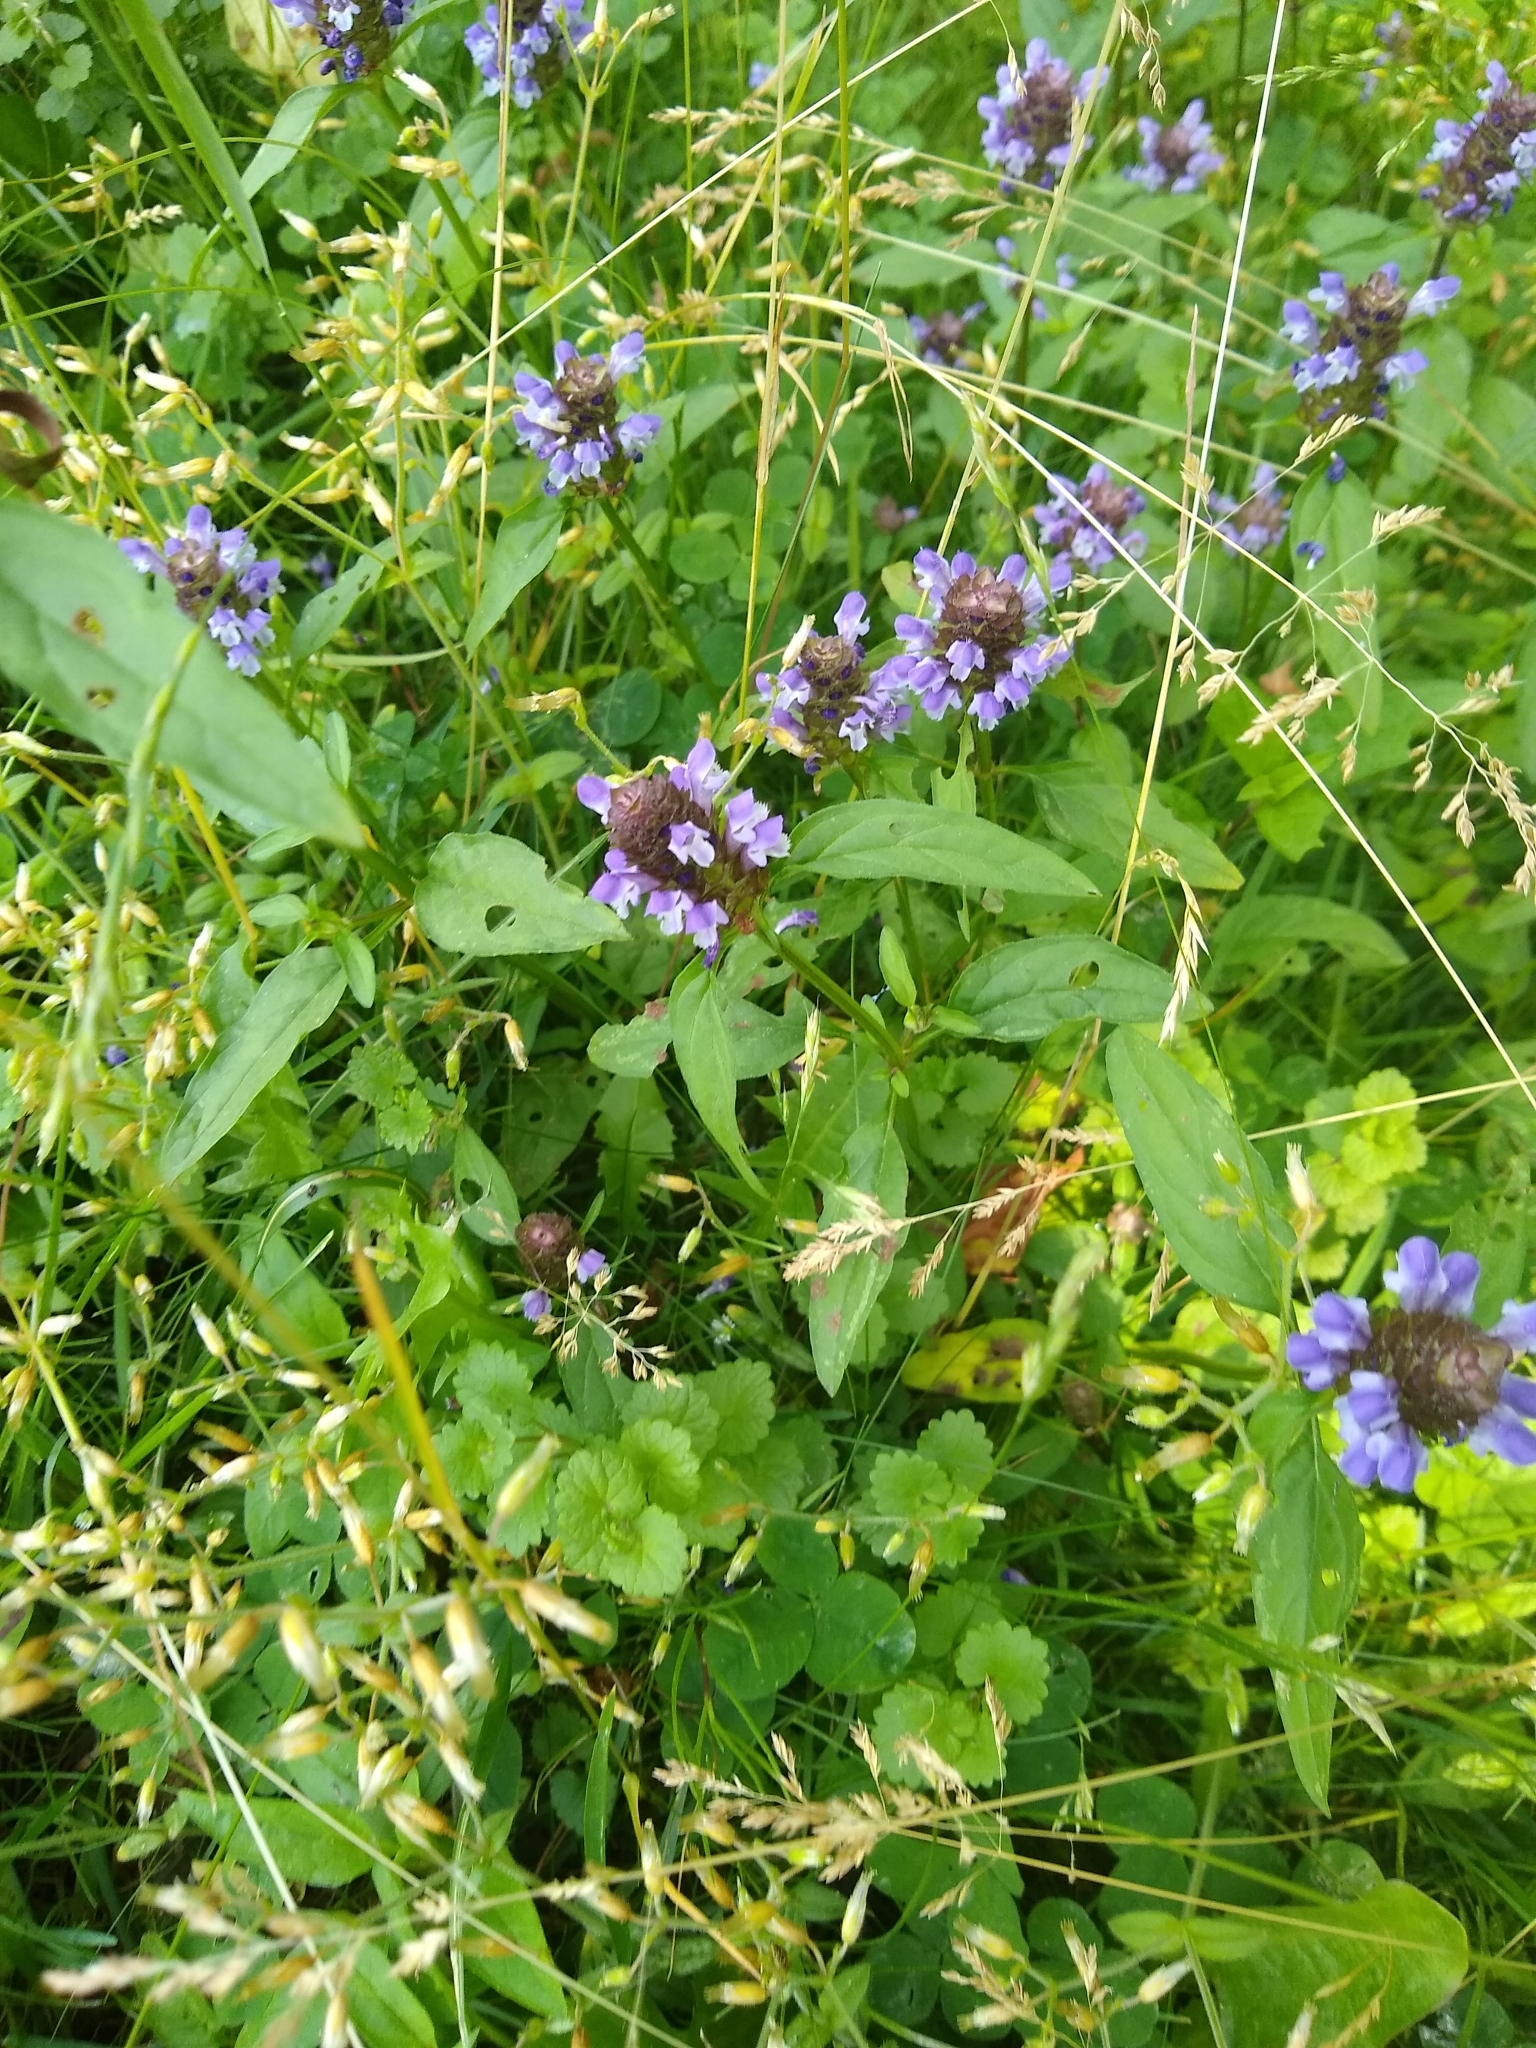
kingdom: Plantae
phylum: Tracheophyta
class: Magnoliopsida
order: Lamiales
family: Lamiaceae
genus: Prunella
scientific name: Prunella vulgaris
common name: Heal-all
